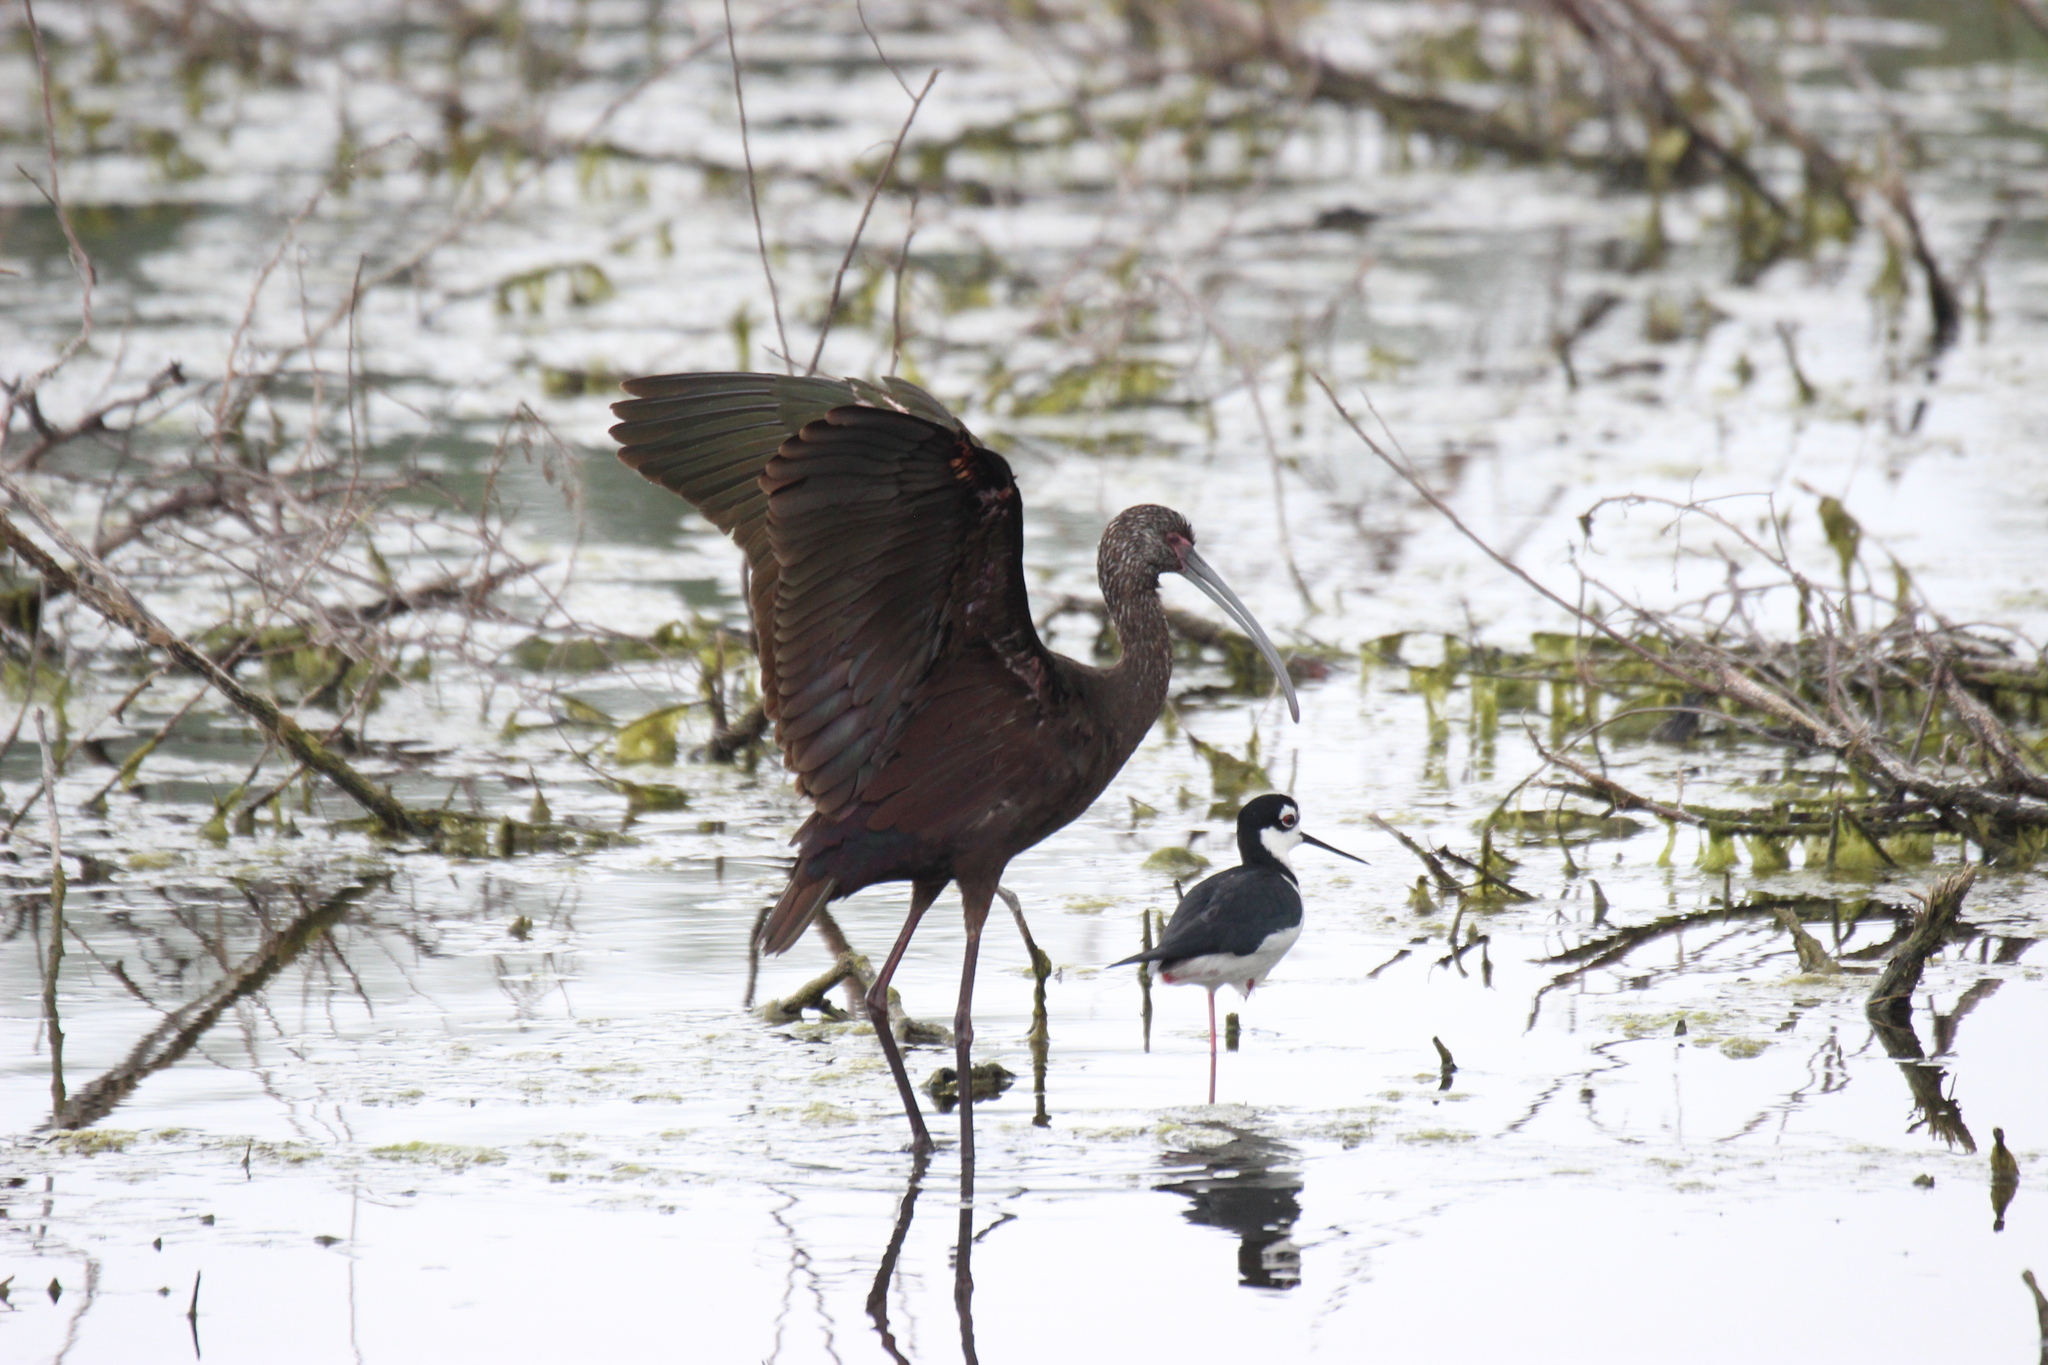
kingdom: Animalia
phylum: Chordata
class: Aves
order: Charadriiformes
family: Recurvirostridae
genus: Himantopus
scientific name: Himantopus mexicanus
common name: Black-necked stilt
